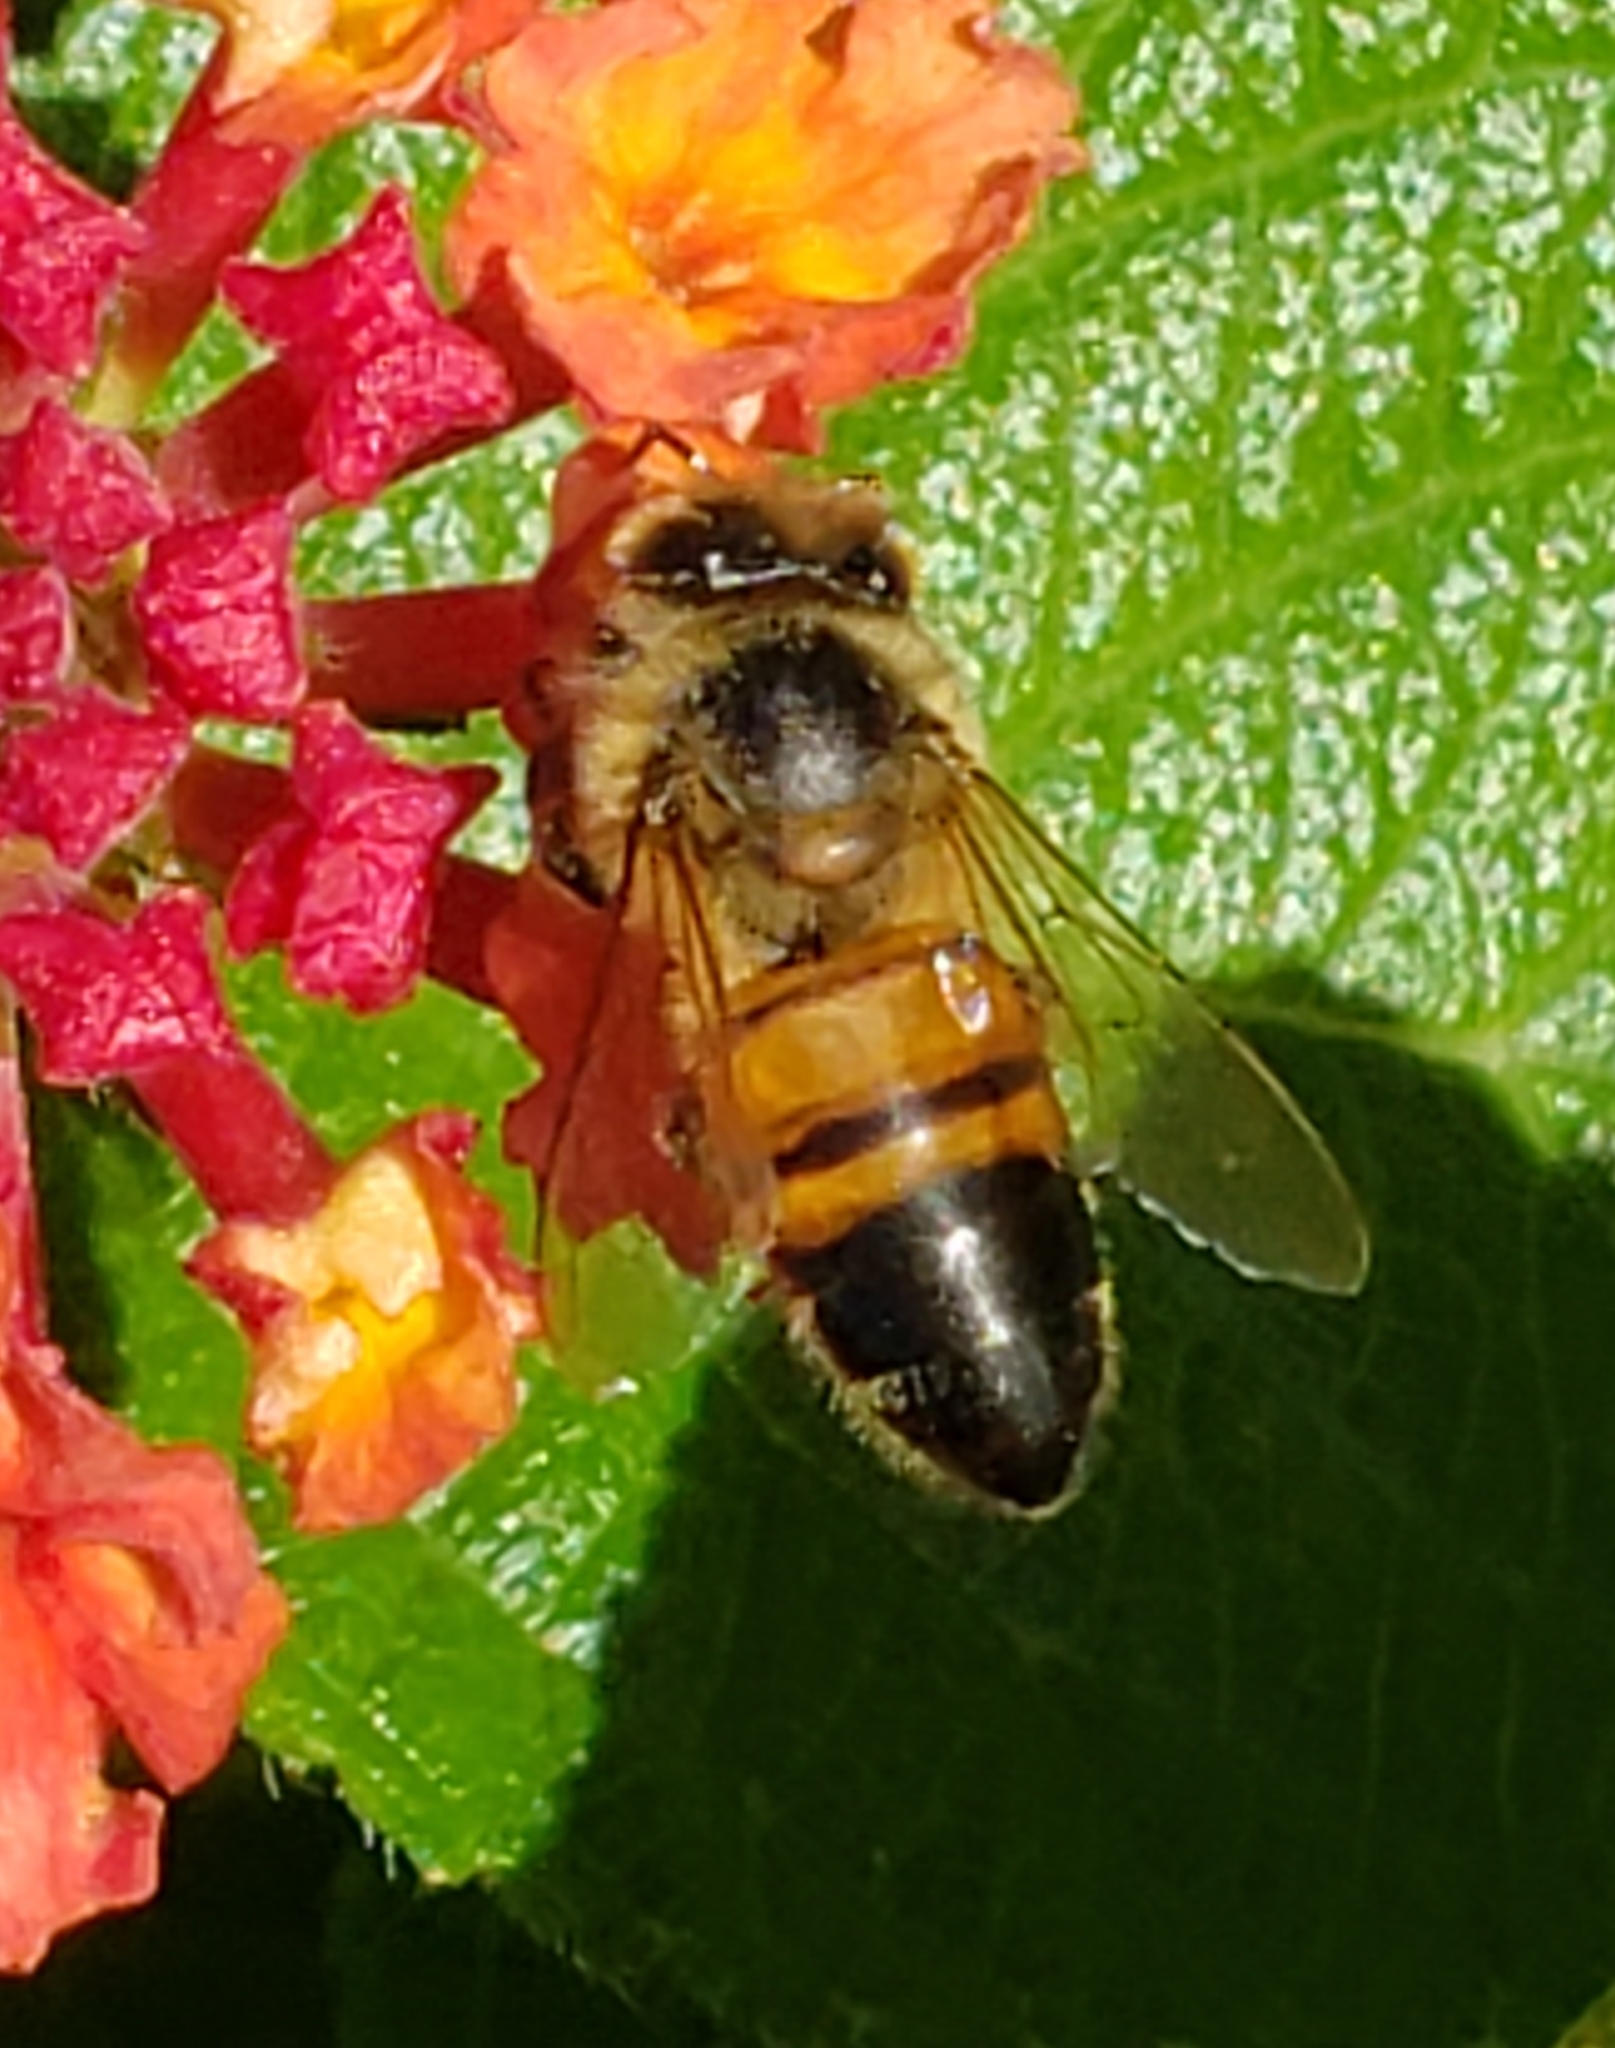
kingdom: Animalia
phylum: Arthropoda
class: Insecta
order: Hymenoptera
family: Apidae
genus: Apis
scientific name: Apis mellifera
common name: Honey bee
